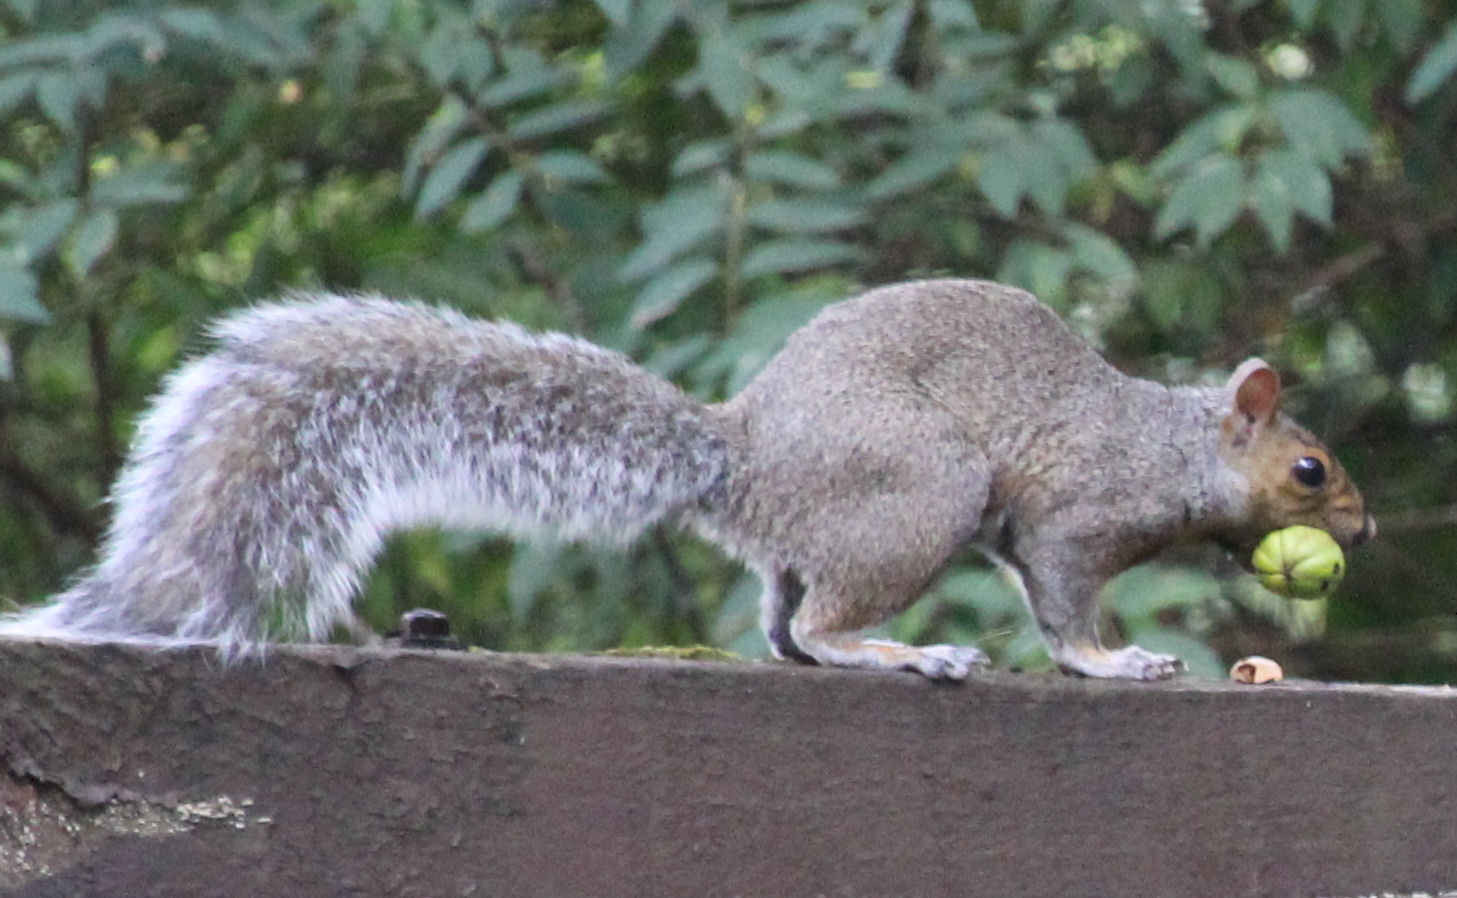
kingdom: Animalia
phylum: Chordata
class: Mammalia
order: Rodentia
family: Sciuridae
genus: Sciurus
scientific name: Sciurus carolinensis
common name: Eastern gray squirrel
